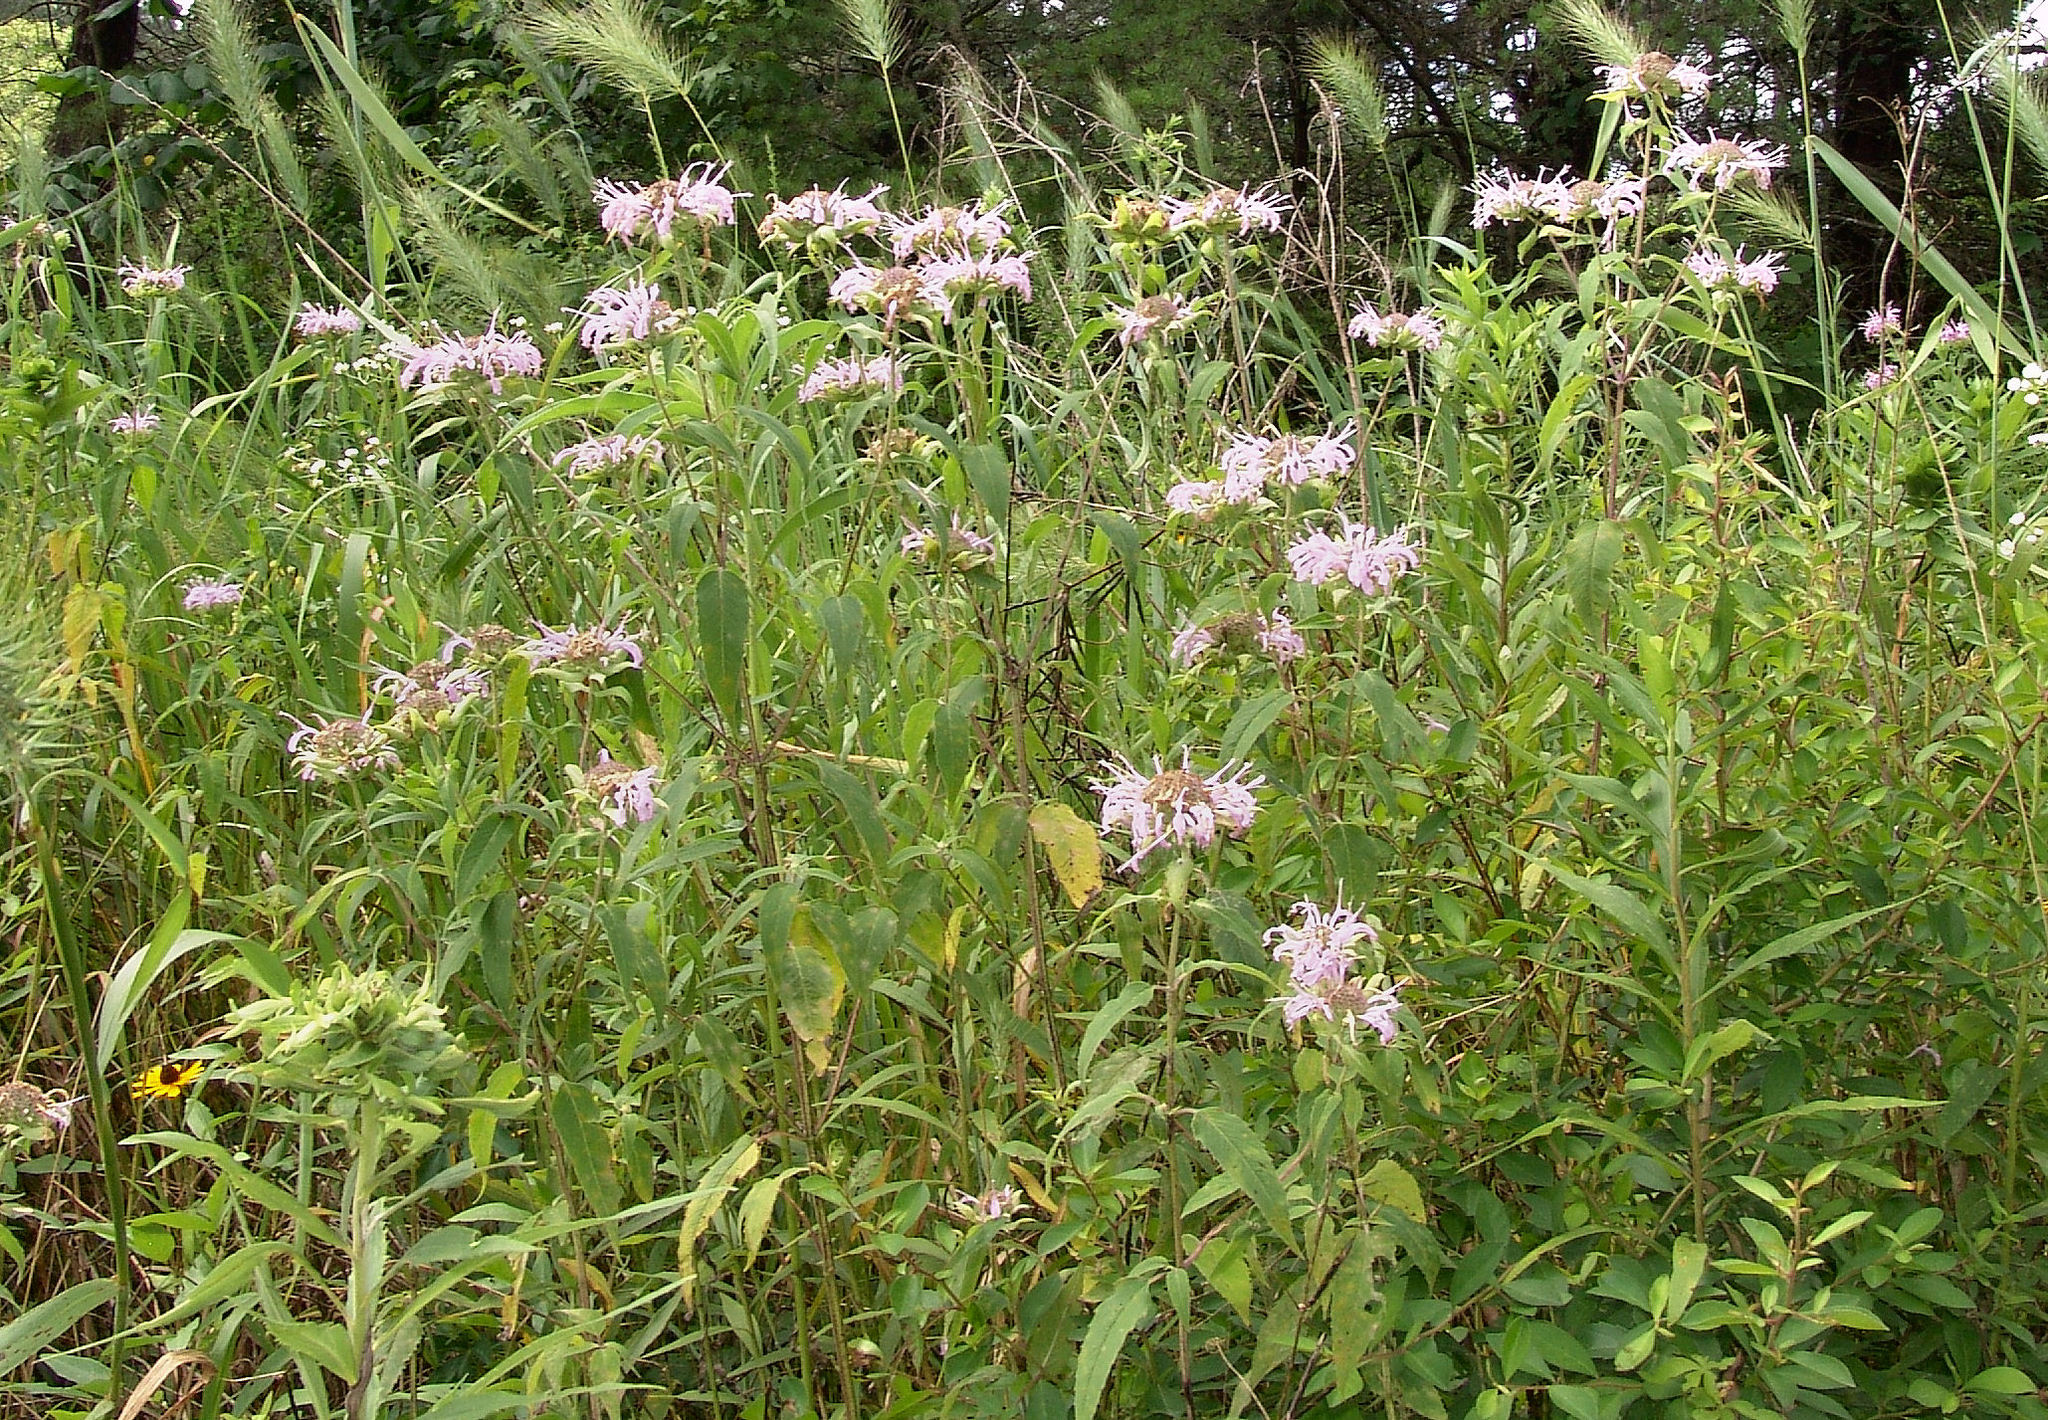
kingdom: Plantae
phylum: Tracheophyta
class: Magnoliopsida
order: Lamiales
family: Lamiaceae
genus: Monarda
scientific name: Monarda fistulosa
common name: Purple beebalm
